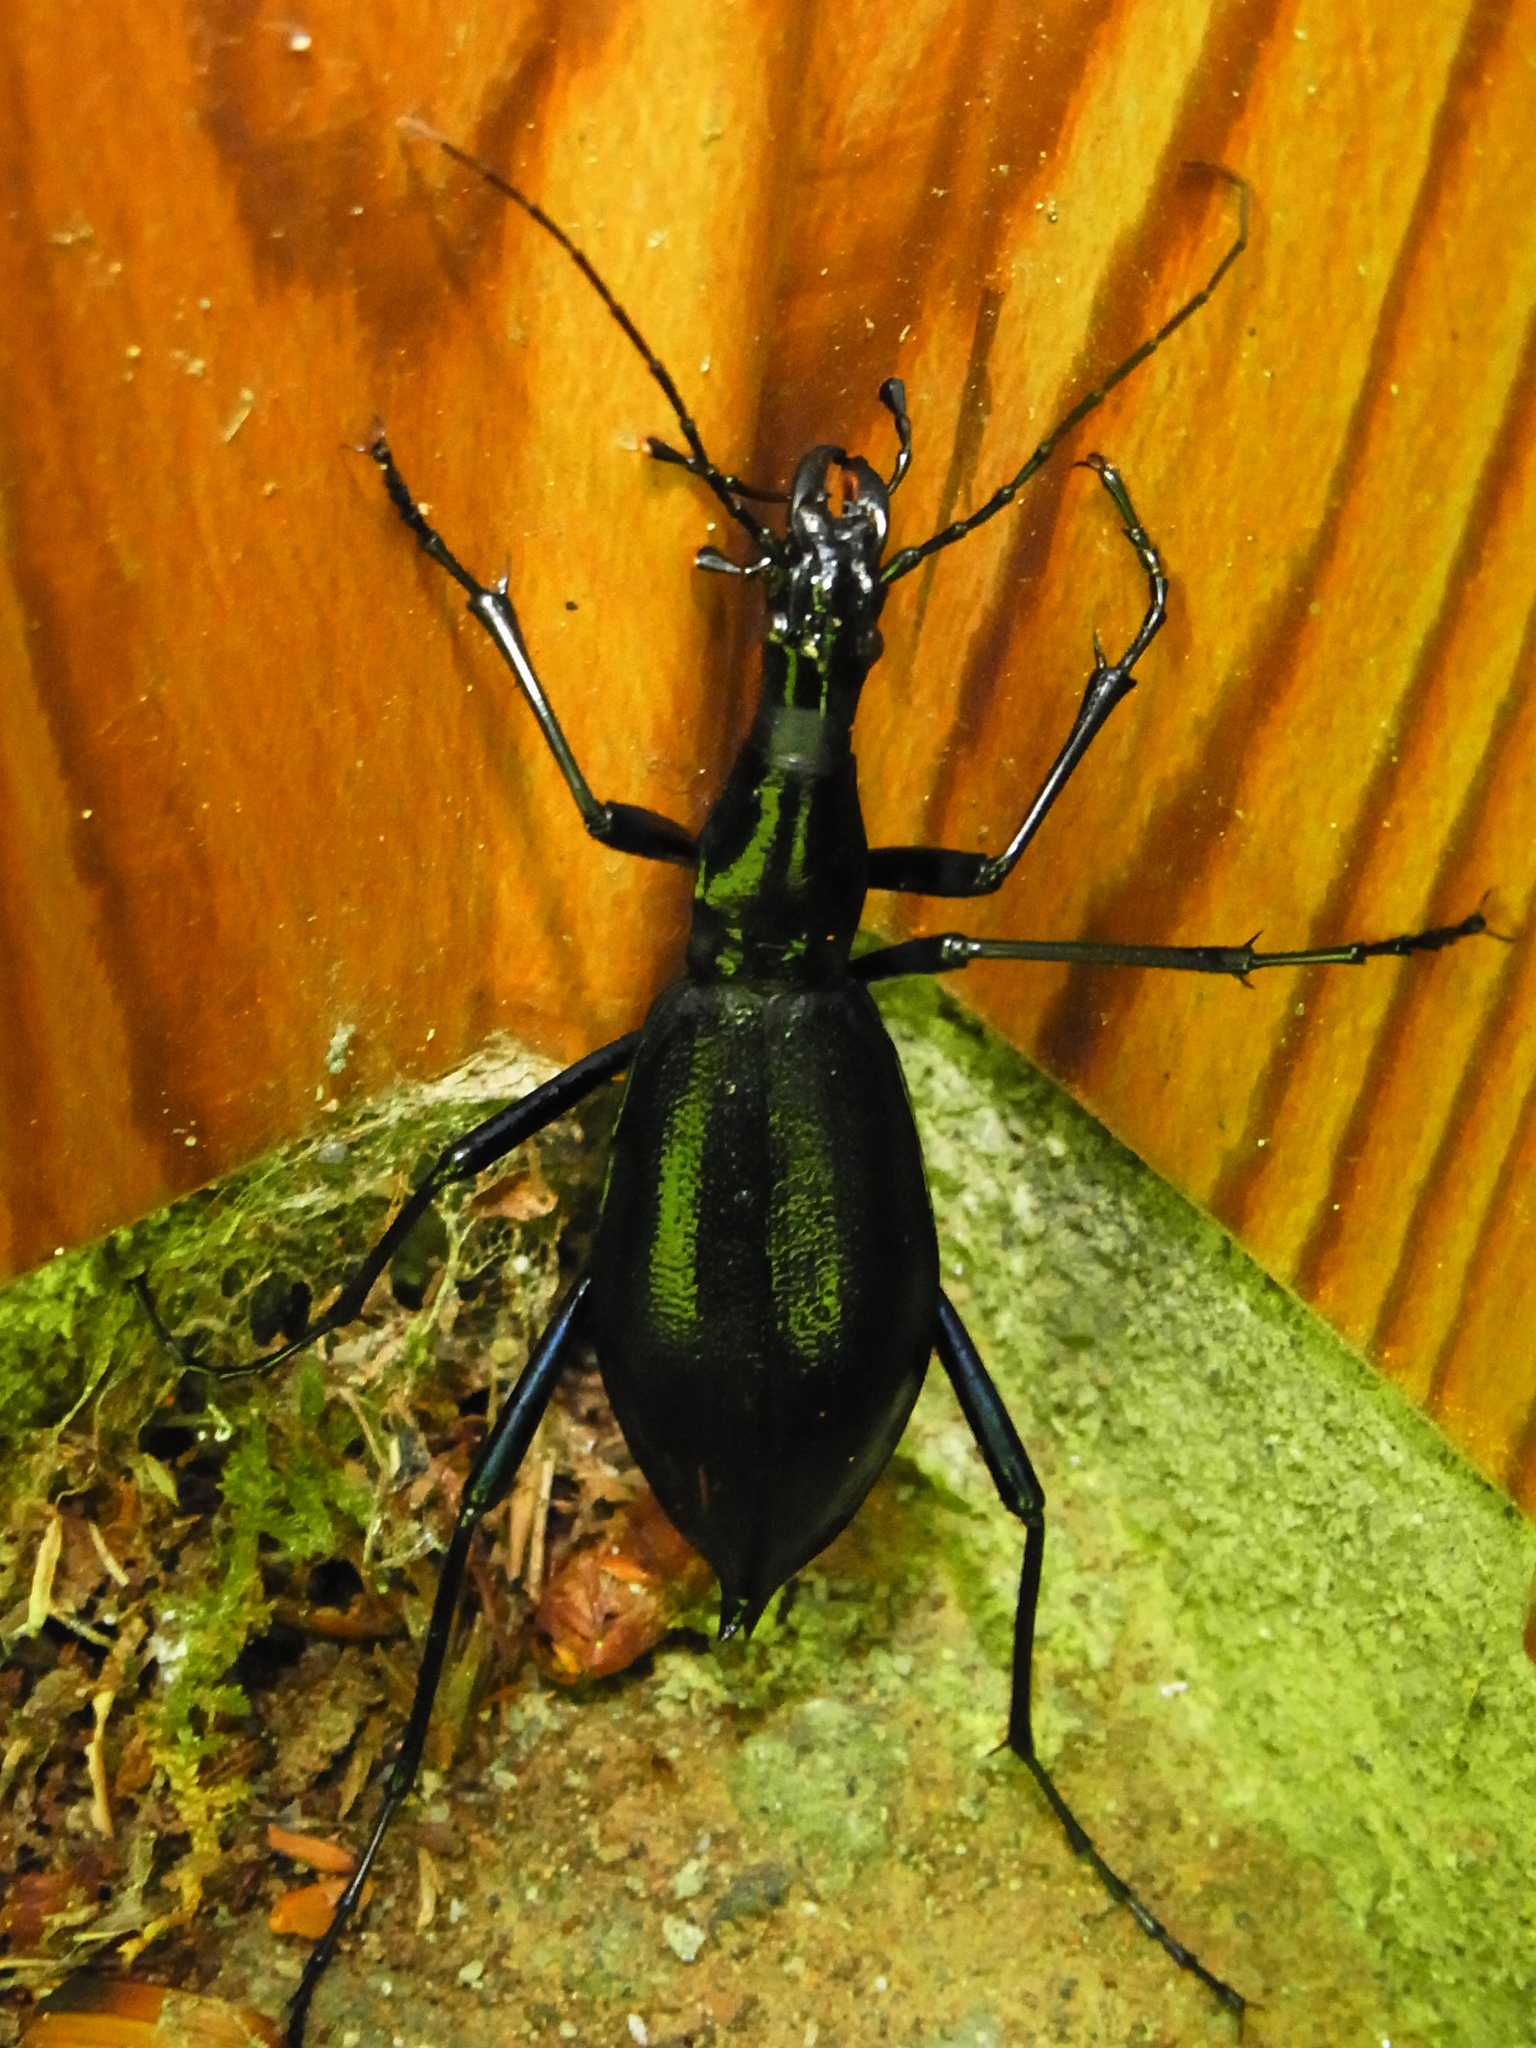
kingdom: Animalia
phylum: Arthropoda
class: Insecta
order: Coleoptera
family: Carabidae
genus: Carabus
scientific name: Carabus blaptoides
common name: Snail-eating beetle
